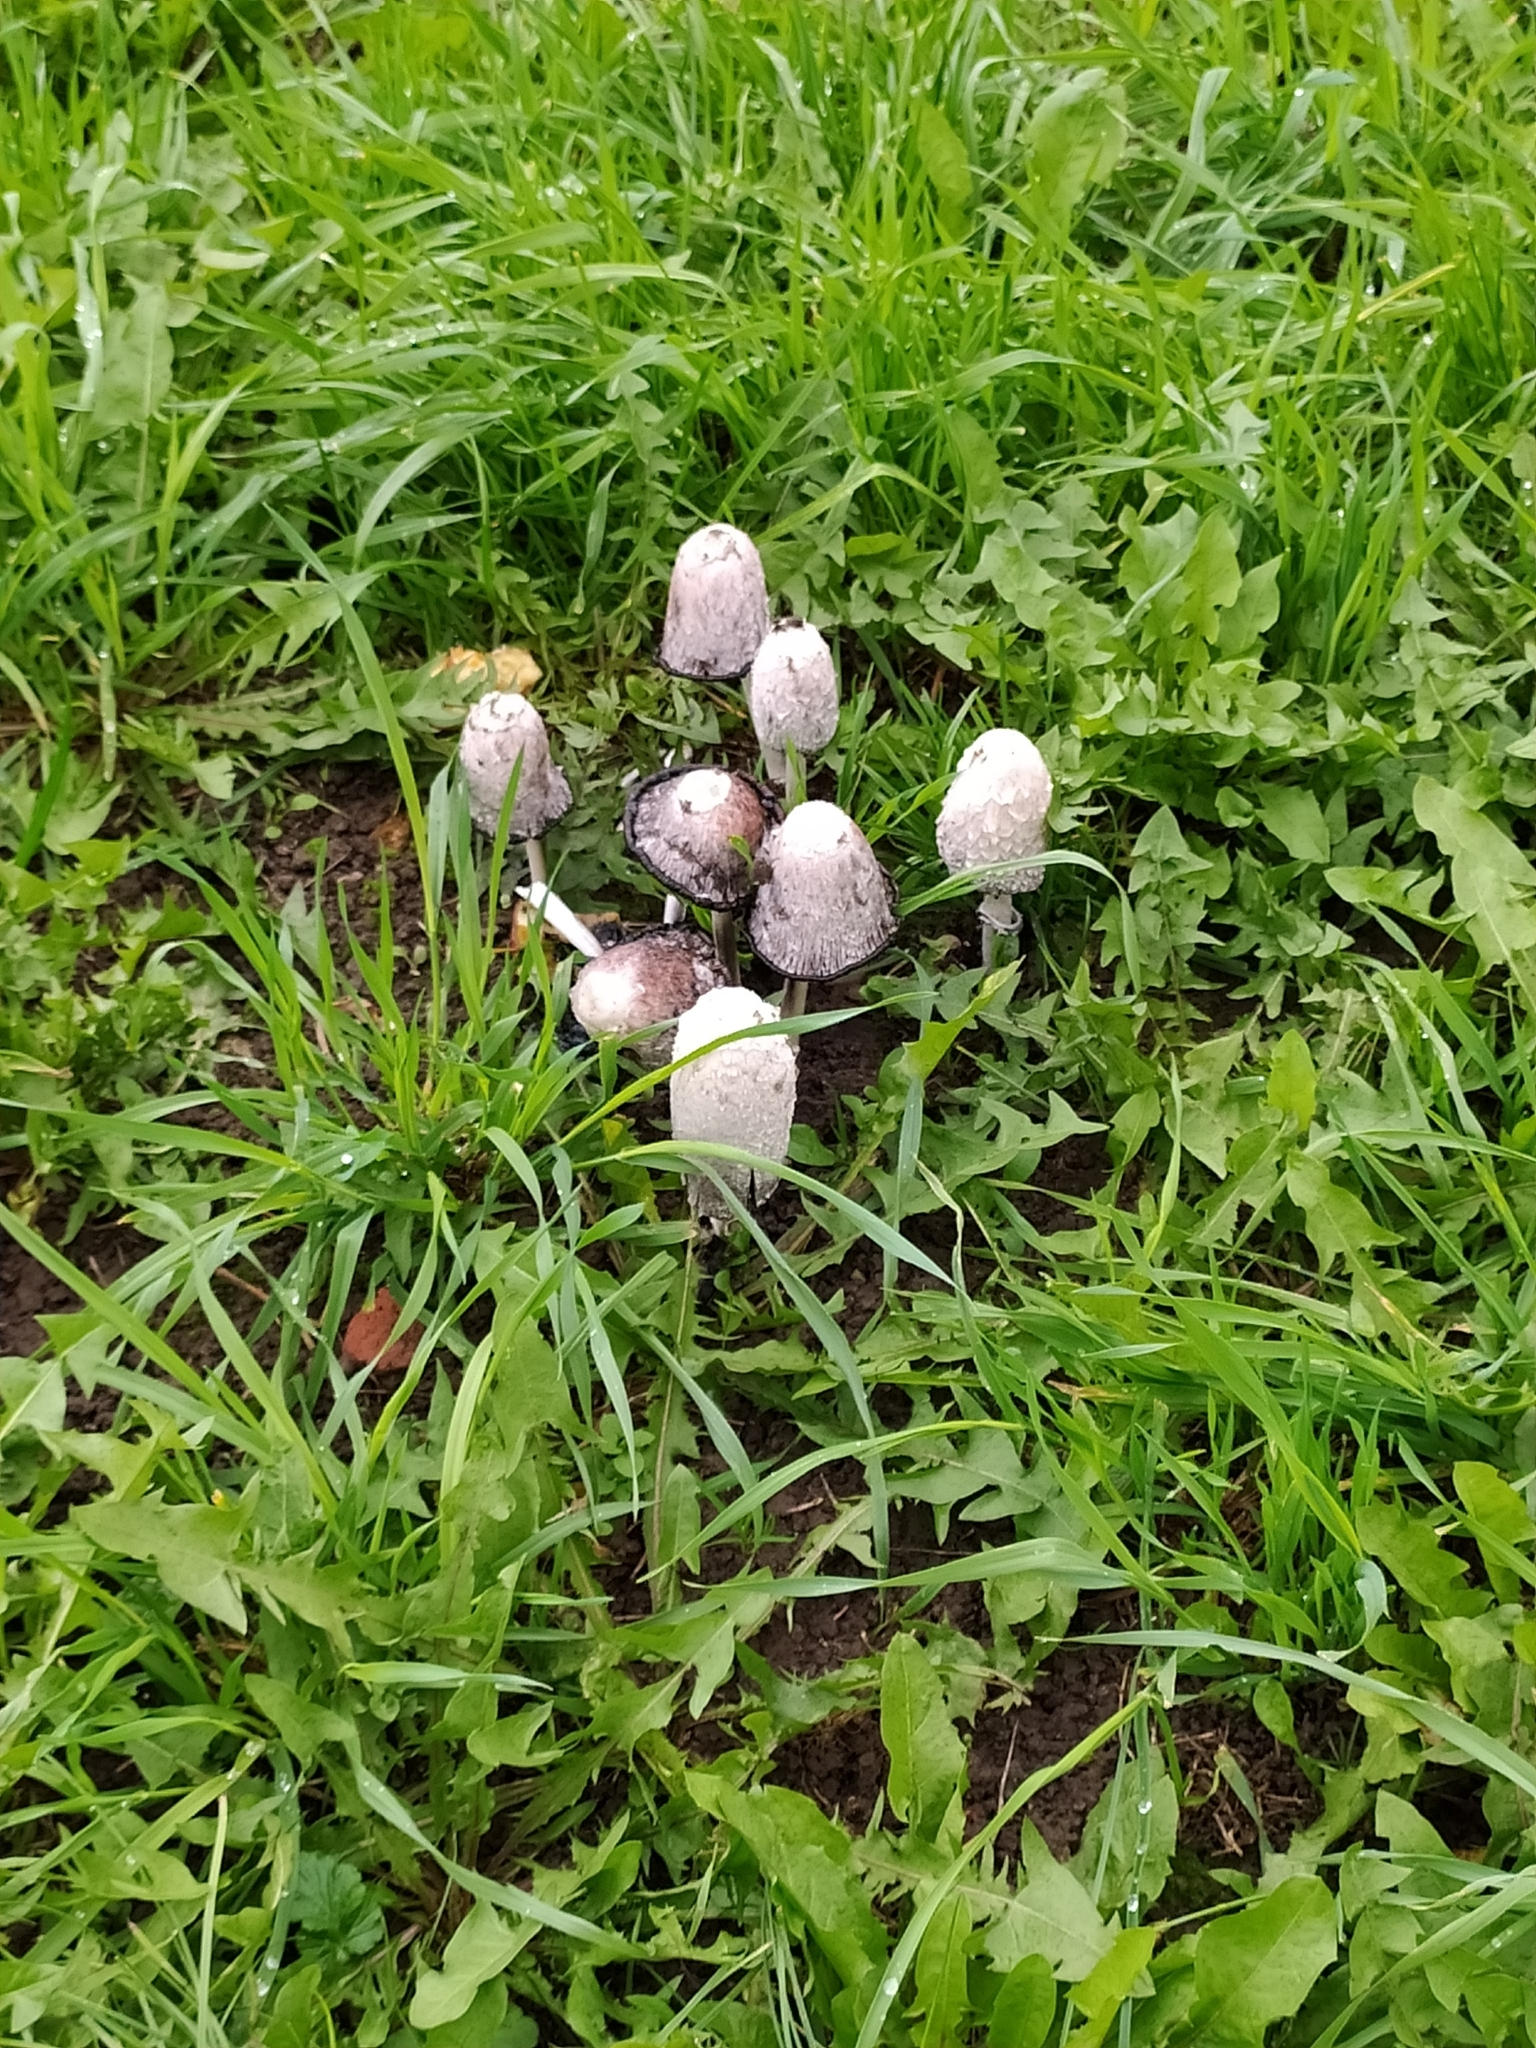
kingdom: Fungi
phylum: Basidiomycota
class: Agaricomycetes
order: Agaricales
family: Agaricaceae
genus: Coprinus
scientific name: Coprinus comatus
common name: Lawyer's wig
